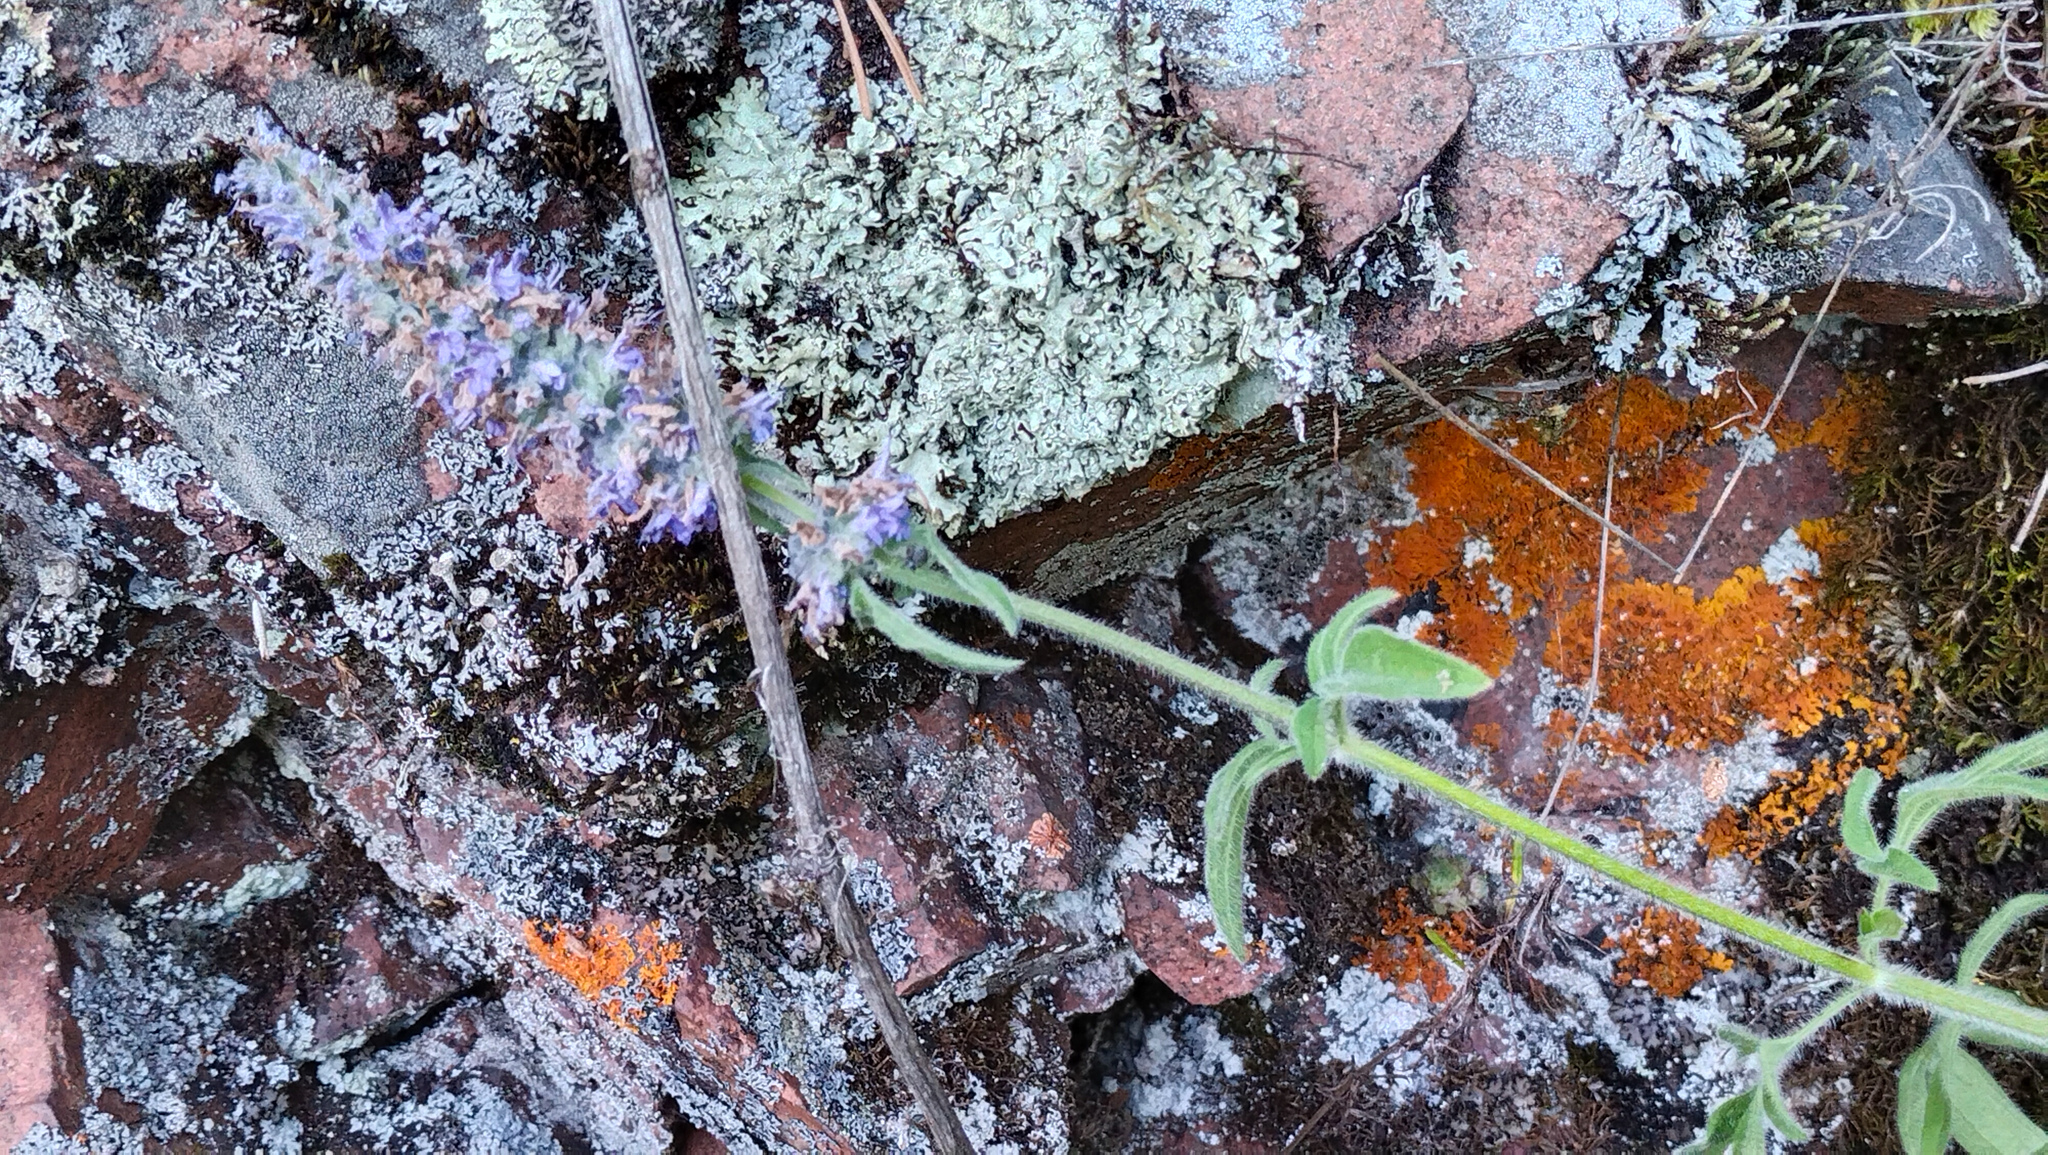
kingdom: Plantae
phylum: Tracheophyta
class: Magnoliopsida
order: Lamiales
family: Lamiaceae
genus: Nepeta
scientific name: Nepeta multifida
